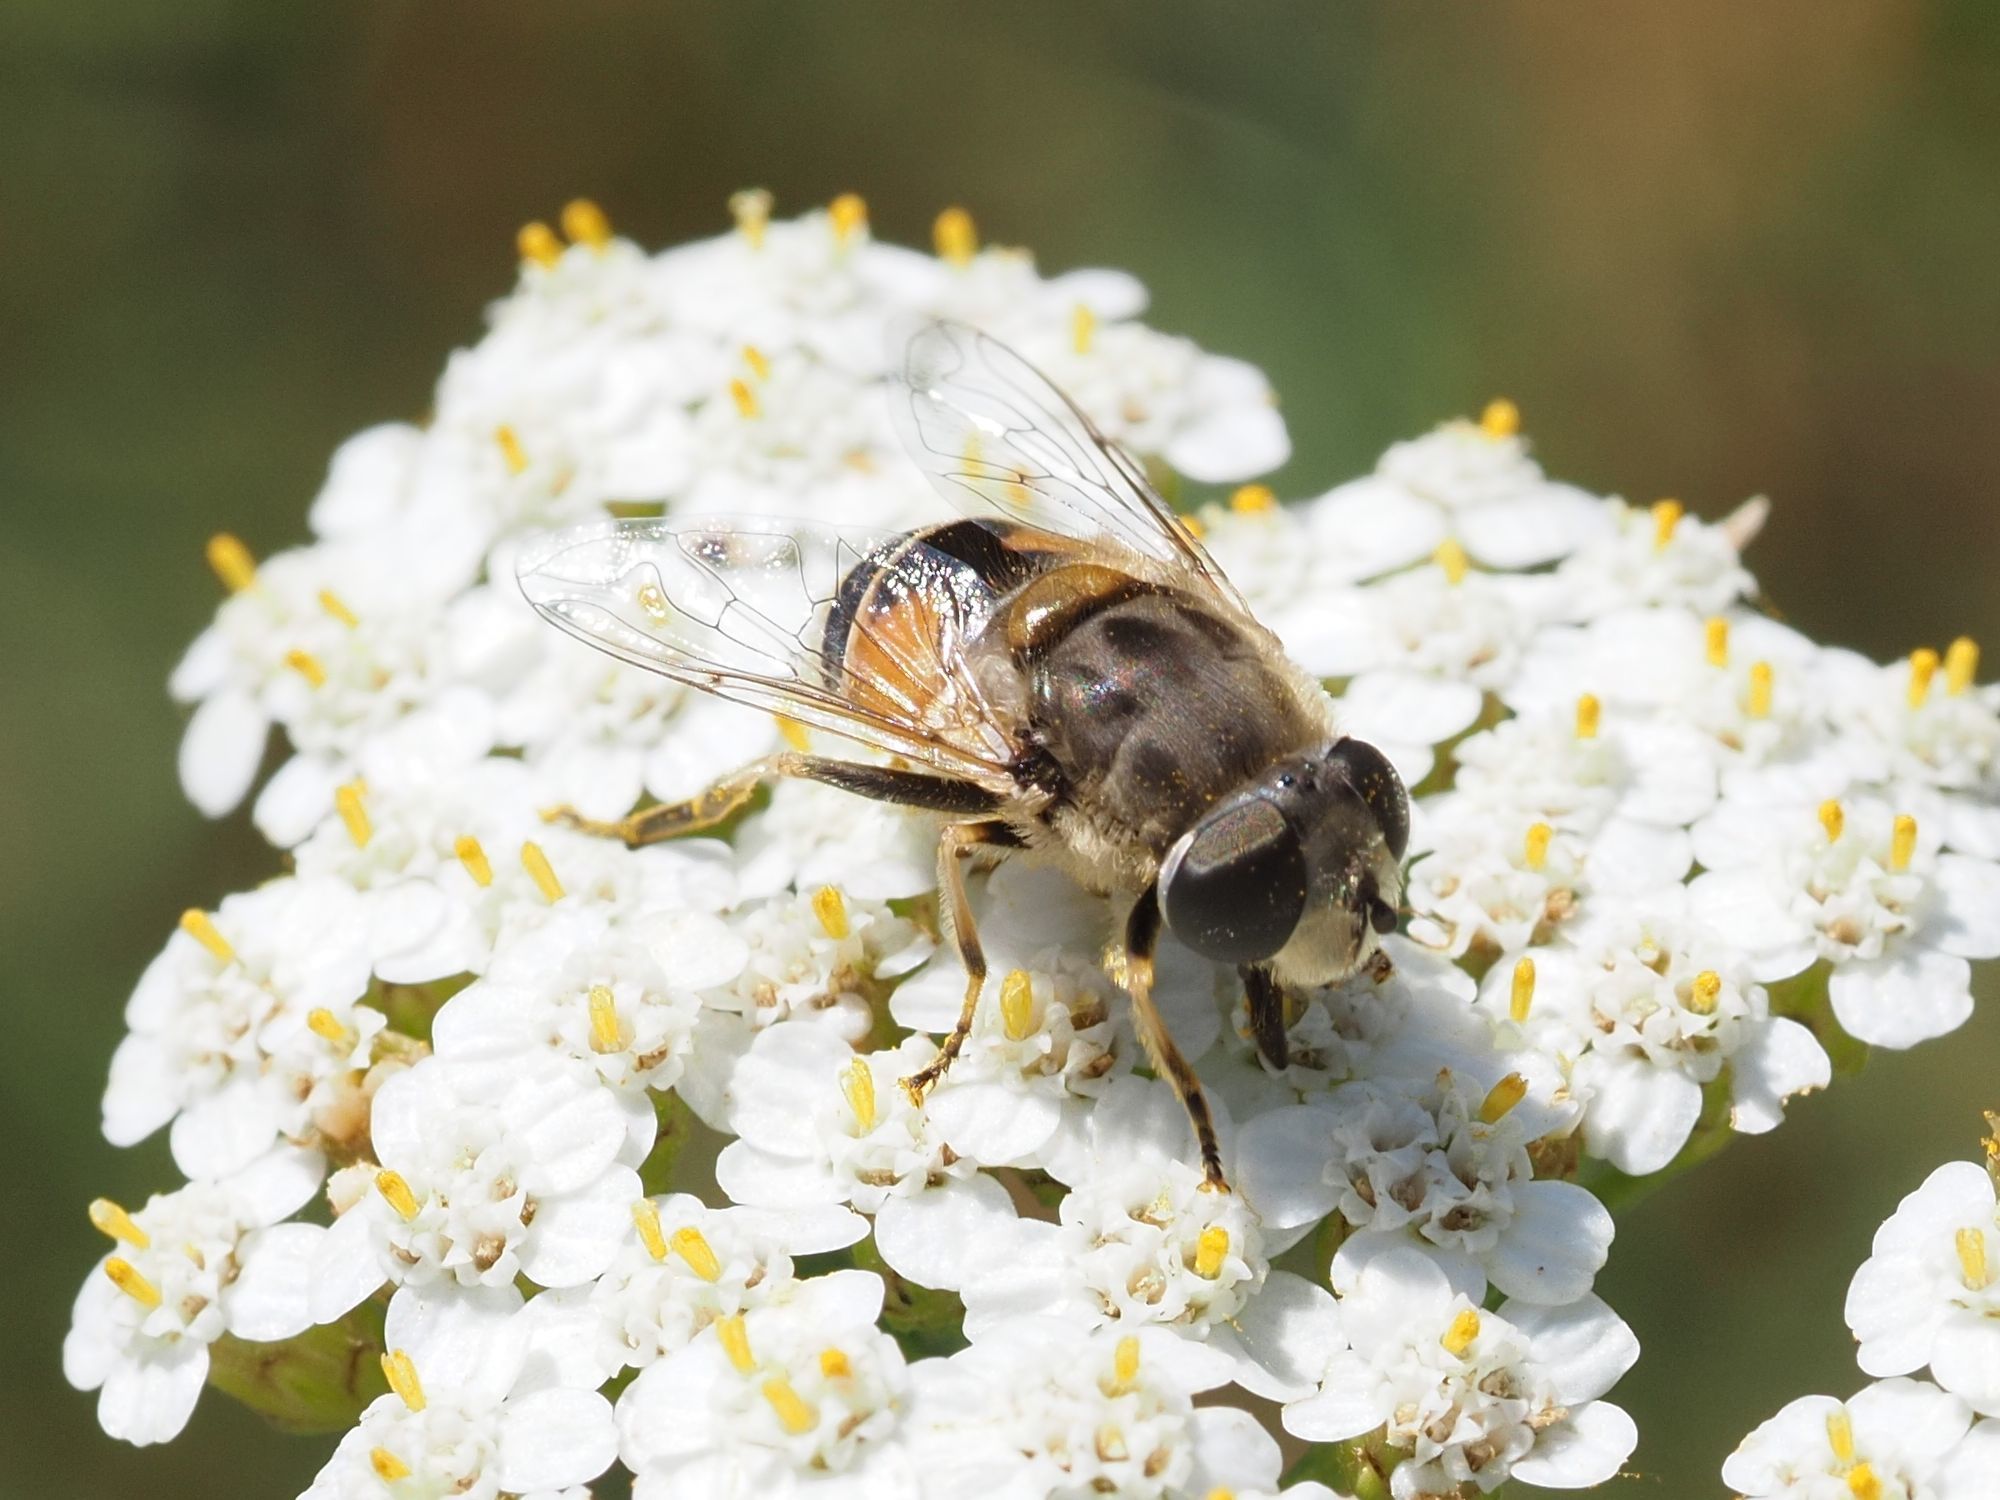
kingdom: Animalia
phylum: Arthropoda
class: Insecta
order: Diptera
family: Syrphidae
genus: Eristalis
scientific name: Eristalis arbustorum
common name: Hover fly
